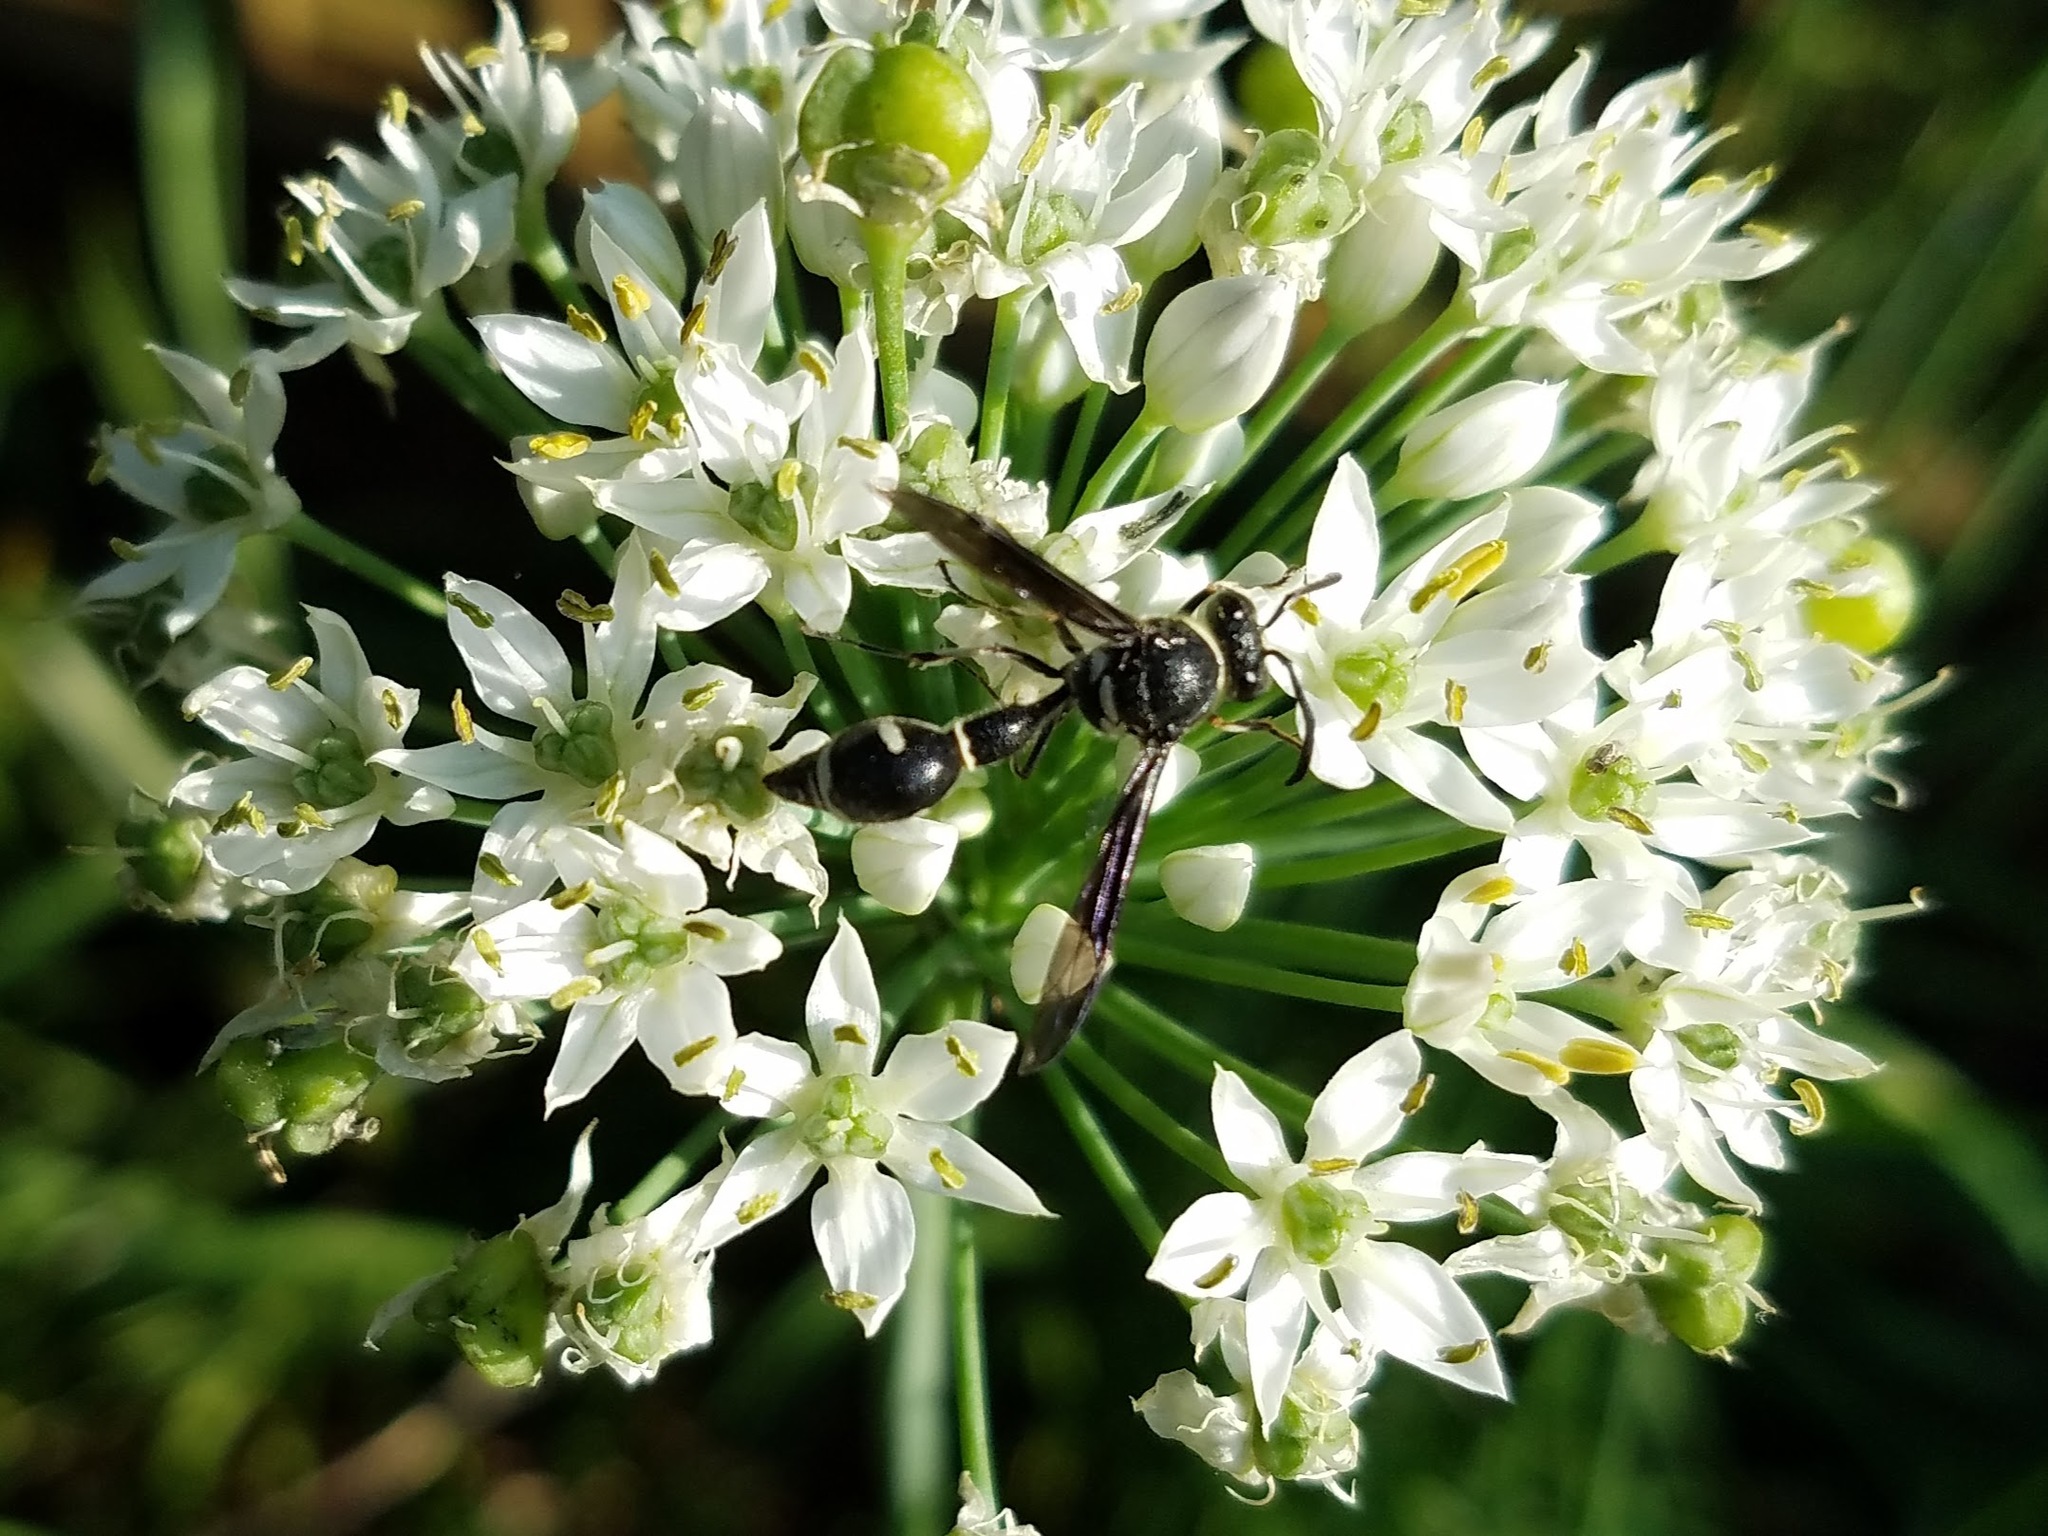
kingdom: Animalia
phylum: Arthropoda
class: Insecta
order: Hymenoptera
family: Vespidae
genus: Eumenes
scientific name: Eumenes fraternus
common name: Fraternal potter wasp
